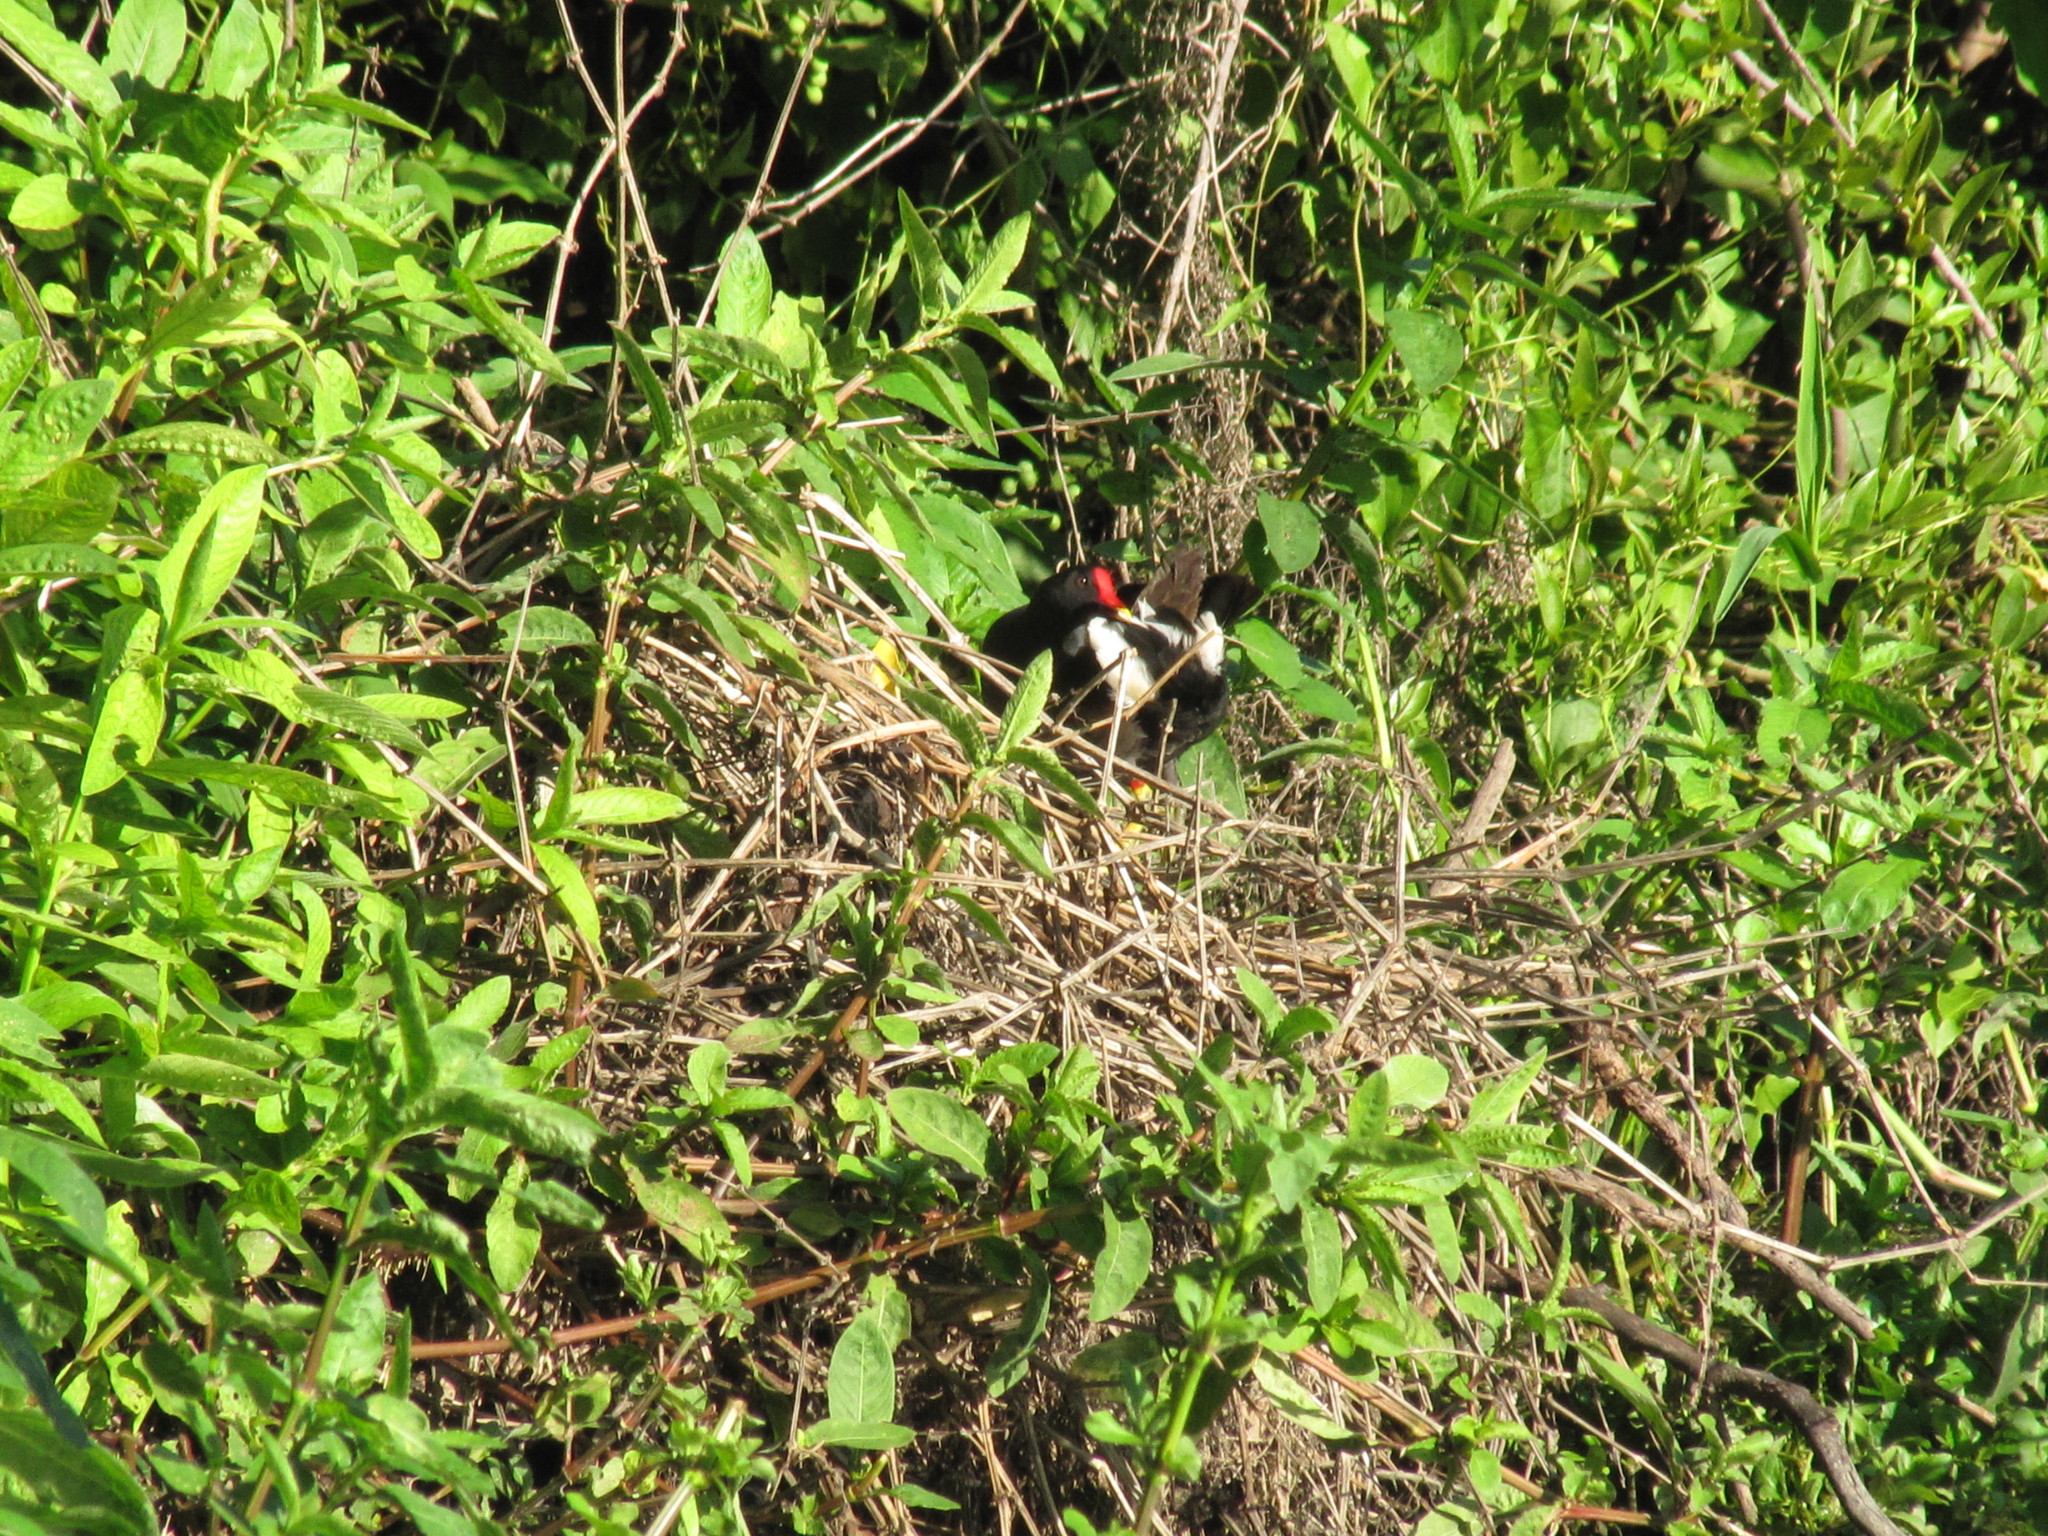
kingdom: Animalia
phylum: Chordata
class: Aves
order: Gruiformes
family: Rallidae
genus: Gallinula
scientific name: Gallinula chloropus
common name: Common moorhen
